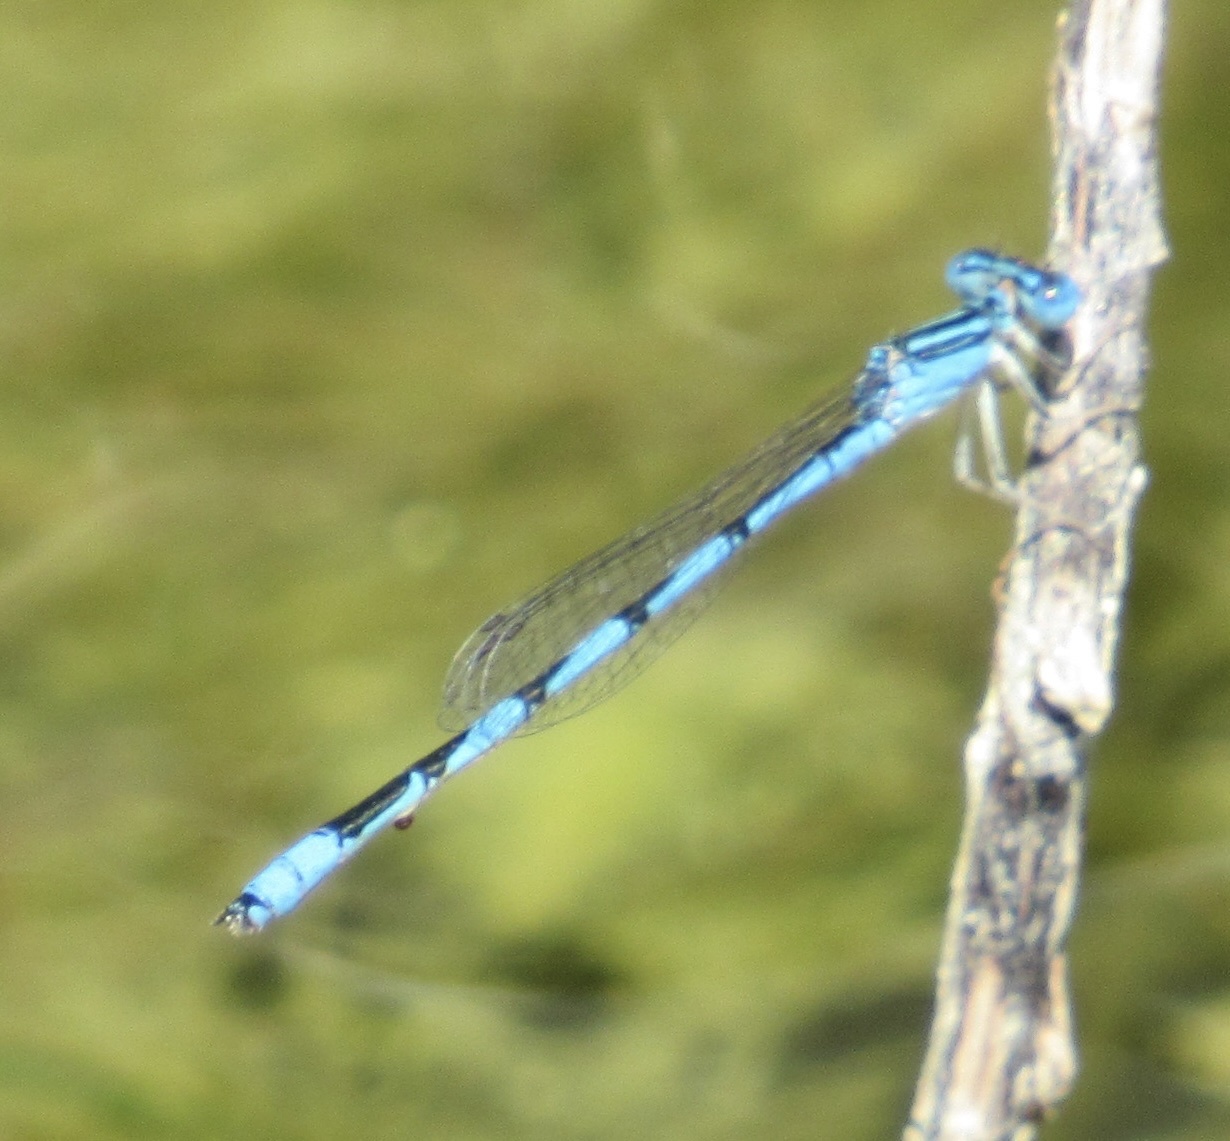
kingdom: Animalia
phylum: Arthropoda
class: Insecta
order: Odonata
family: Coenagrionidae
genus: Enallagma
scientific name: Enallagma basidens
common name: Double-striped bluet
